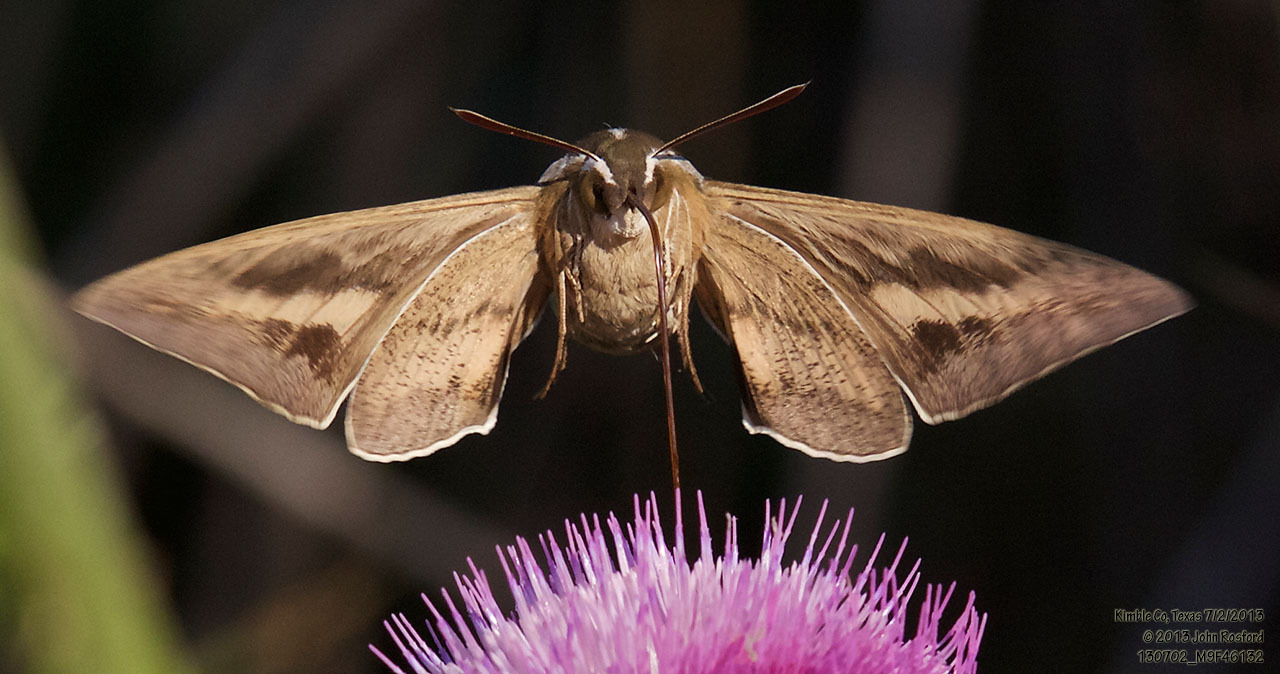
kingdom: Animalia
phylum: Arthropoda
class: Insecta
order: Lepidoptera
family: Sphingidae
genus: Hyles
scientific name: Hyles lineata
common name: White-lined sphinx
